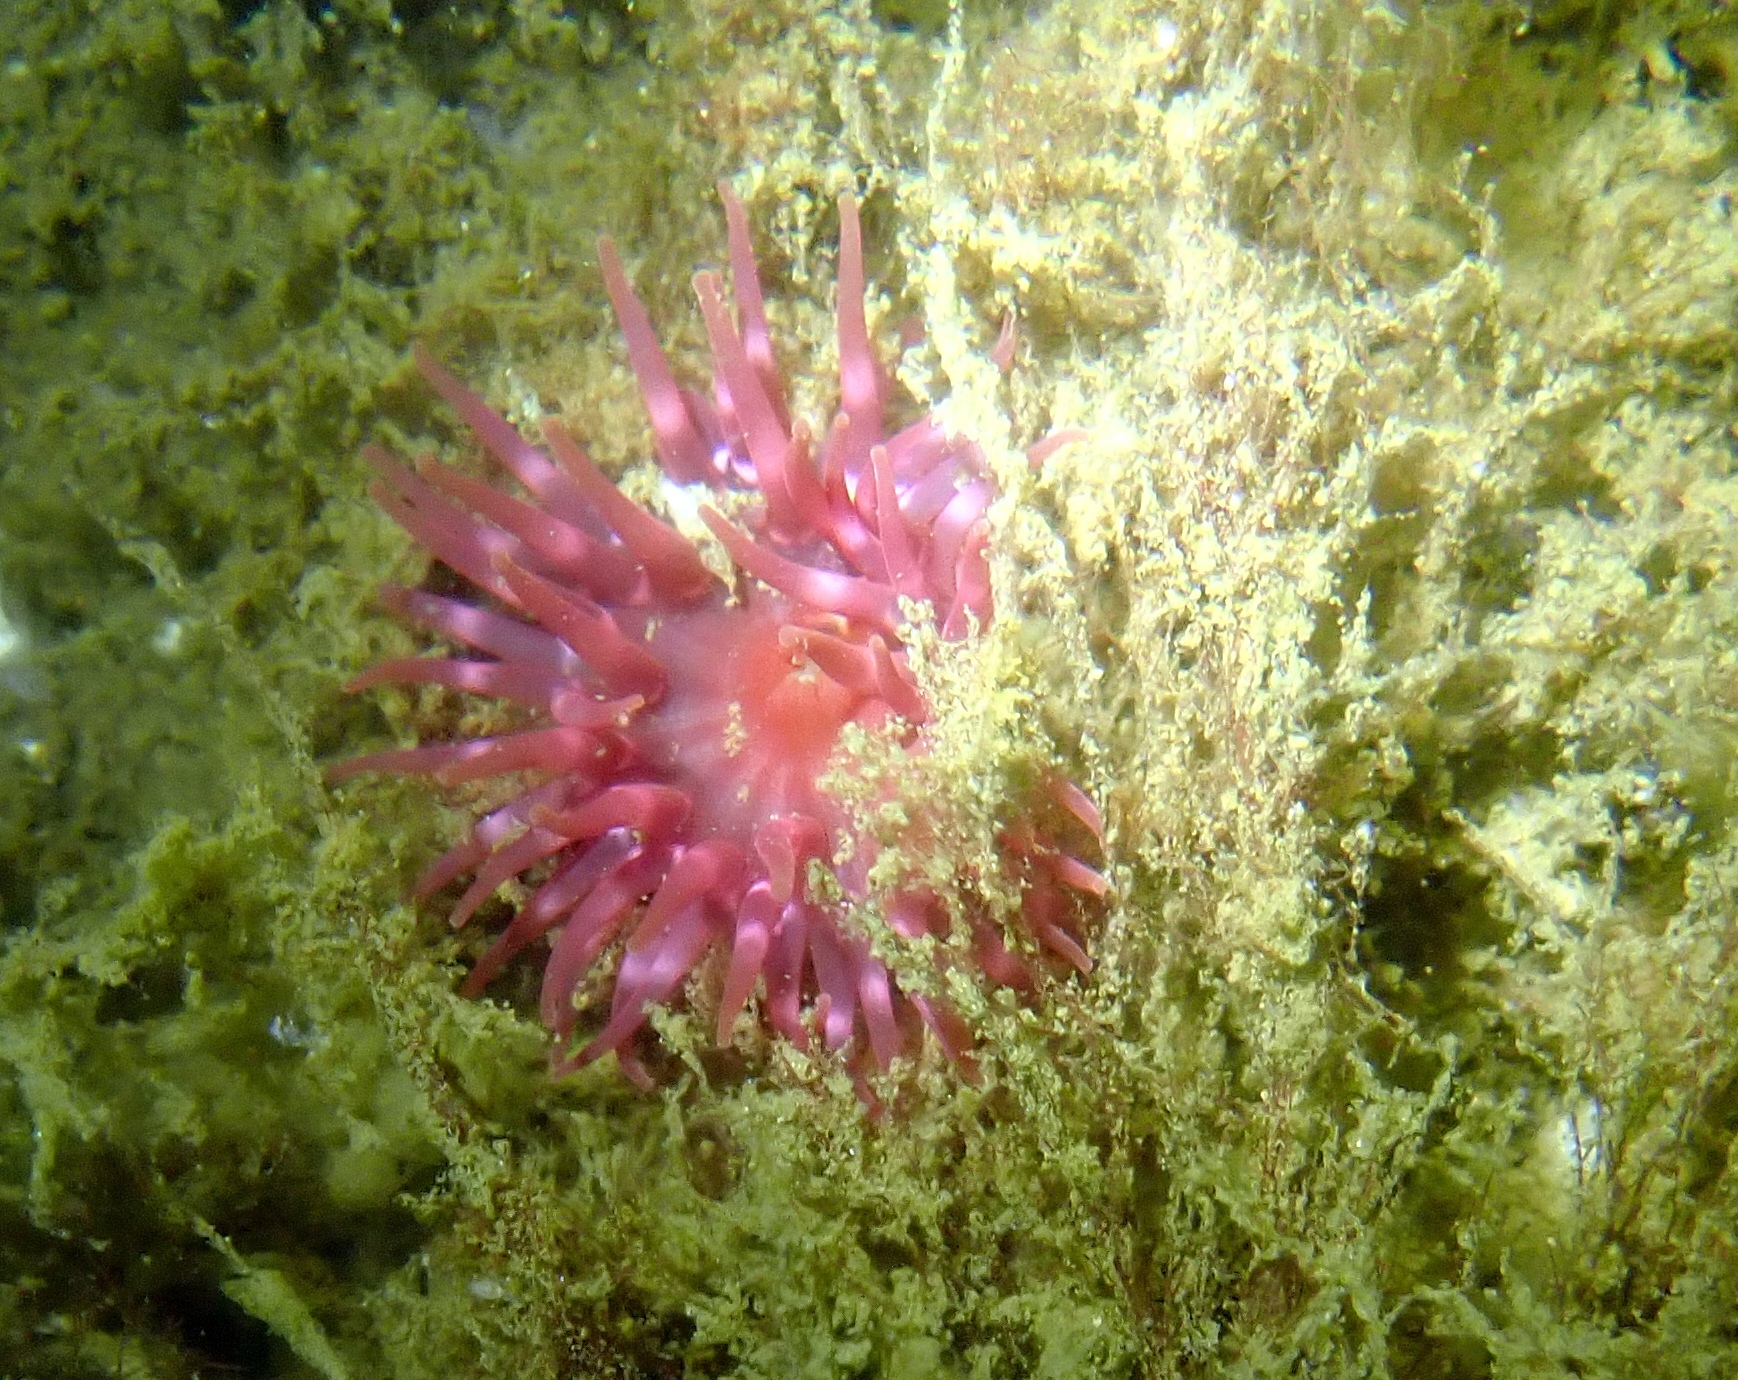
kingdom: Animalia
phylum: Cnidaria
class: Anthozoa
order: Actiniaria
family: Actiniidae
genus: Urticina
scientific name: Urticina felina
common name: Dahlia anemone
